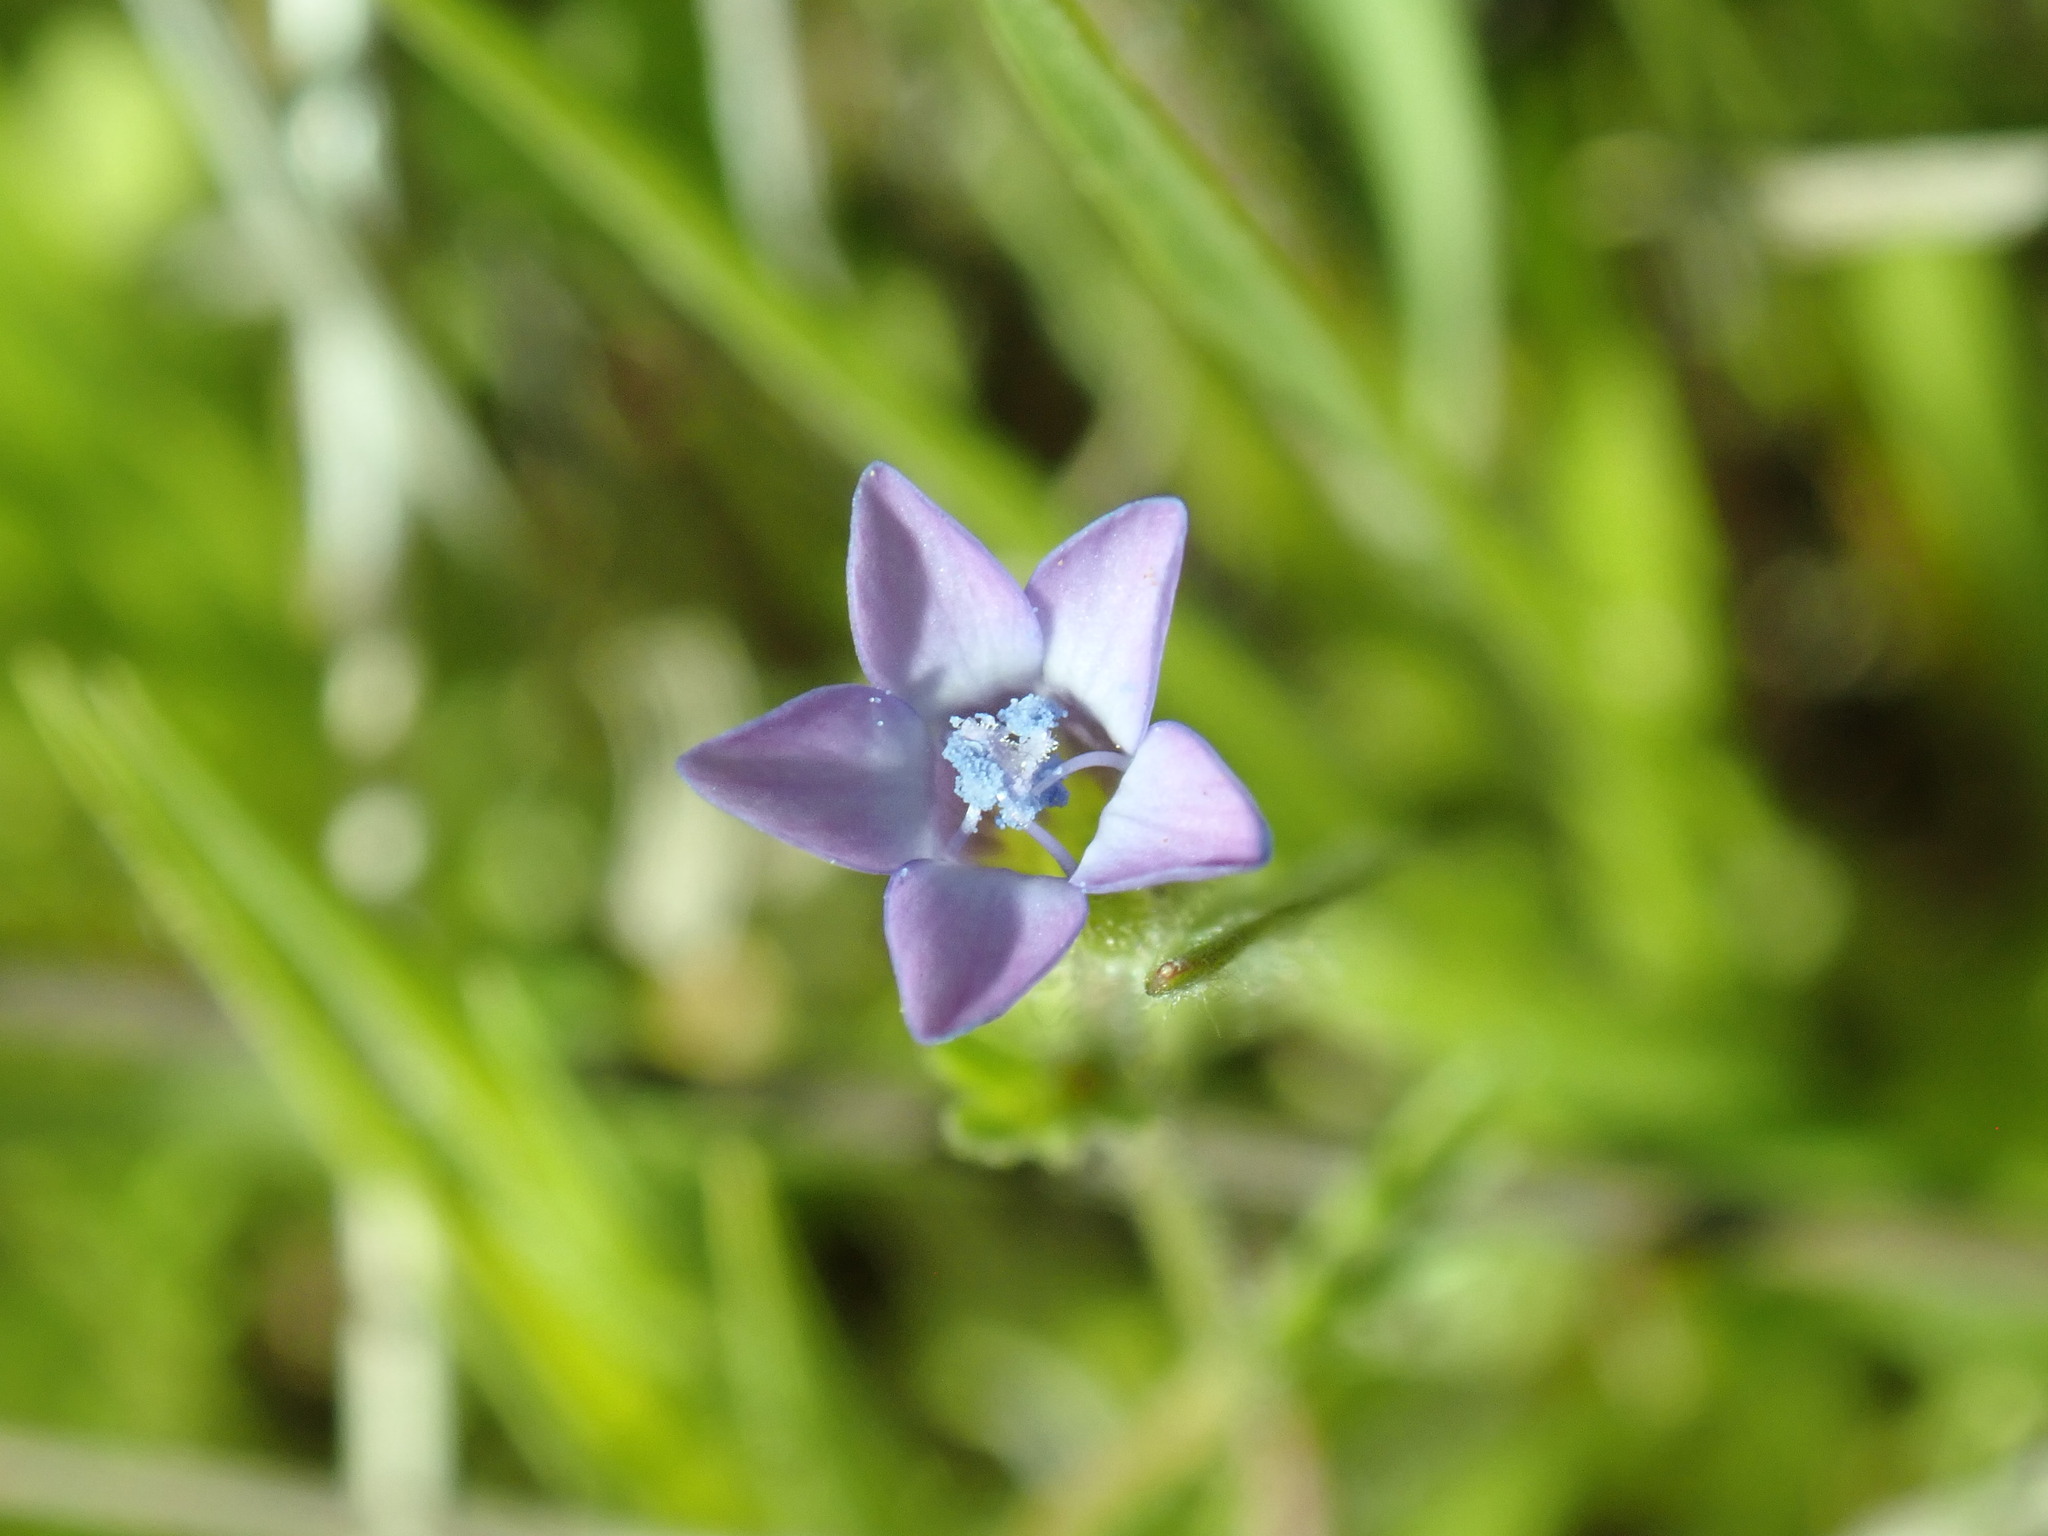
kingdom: Plantae
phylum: Tracheophyta
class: Magnoliopsida
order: Ericales
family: Polemoniaceae
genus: Gilia
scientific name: Gilia clivorum
